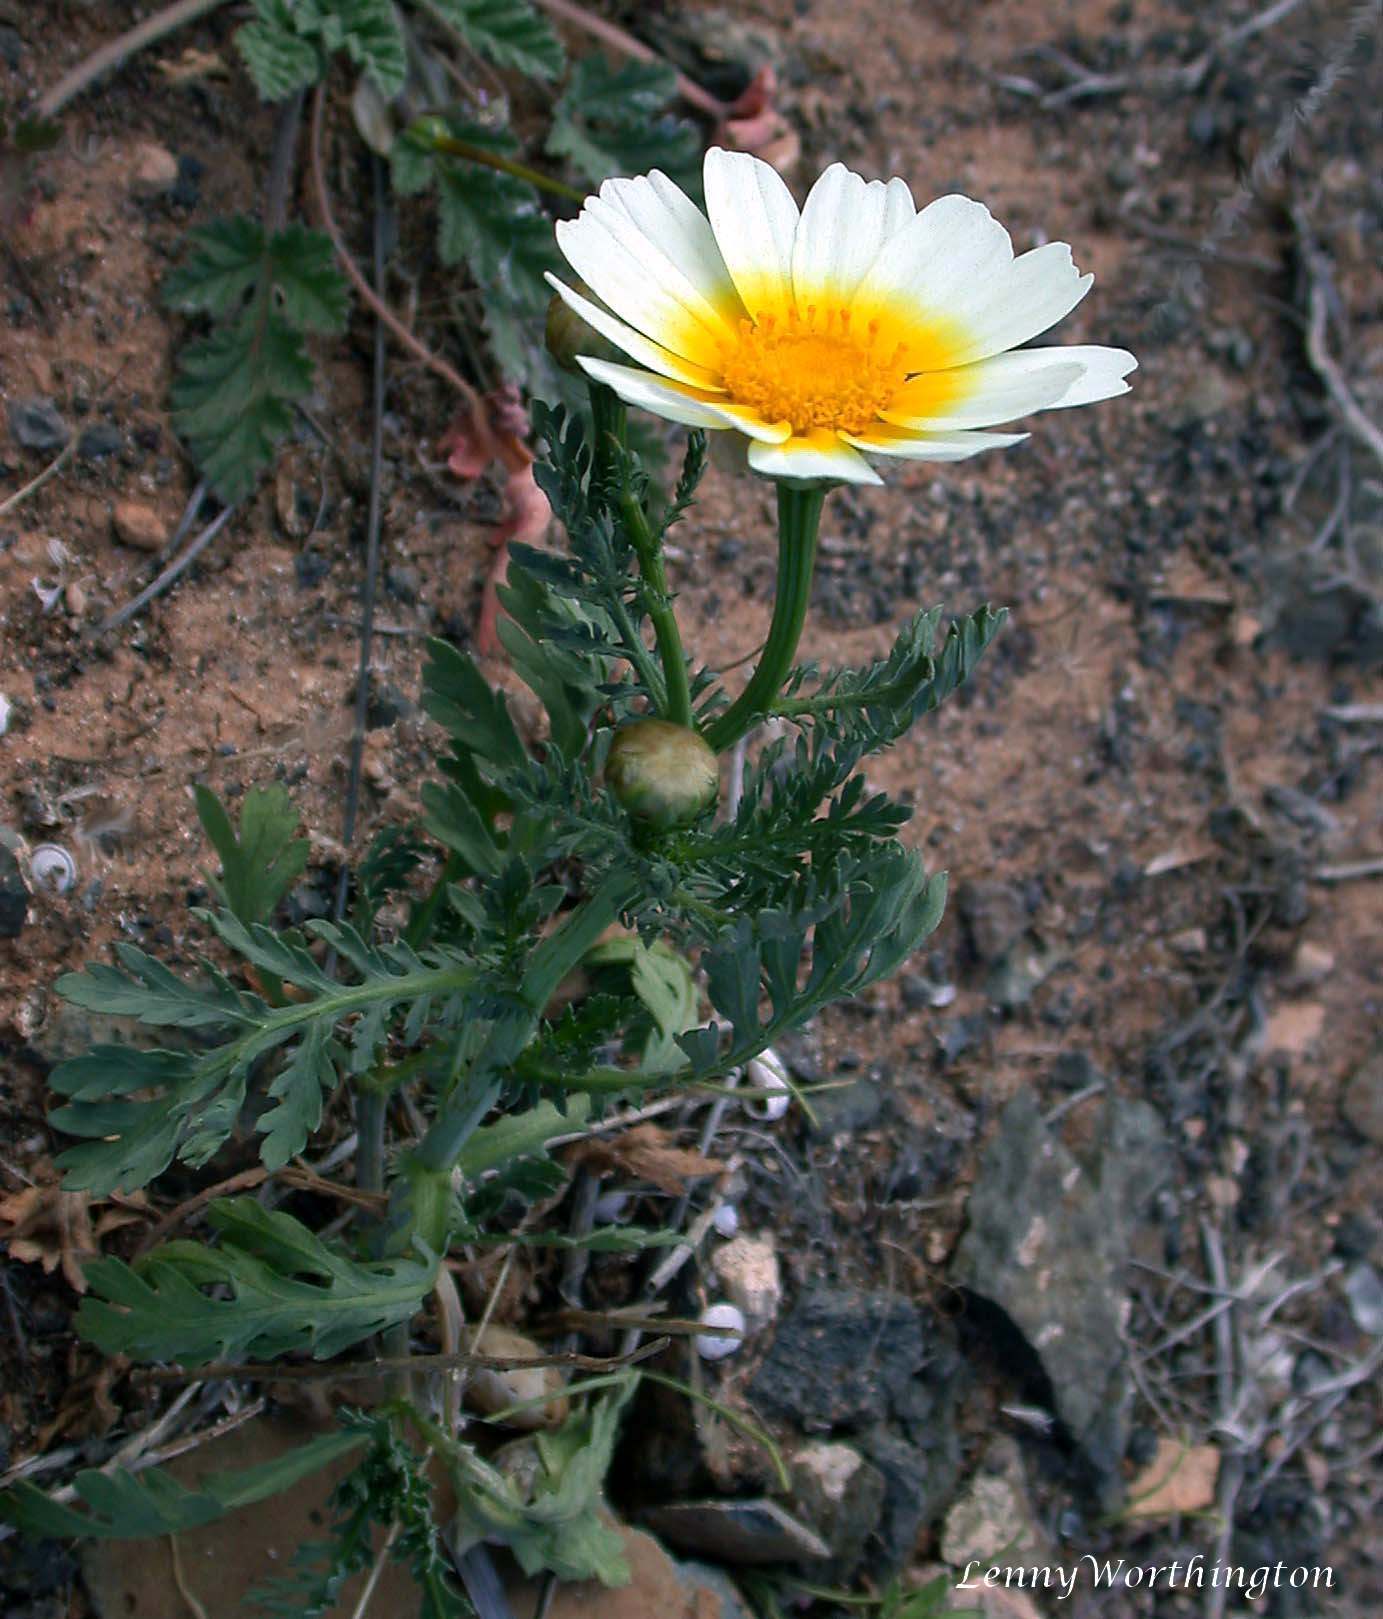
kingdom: Plantae
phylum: Tracheophyta
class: Magnoliopsida
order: Asterales
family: Asteraceae
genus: Glebionis
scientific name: Glebionis coronaria
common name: Crowndaisy
